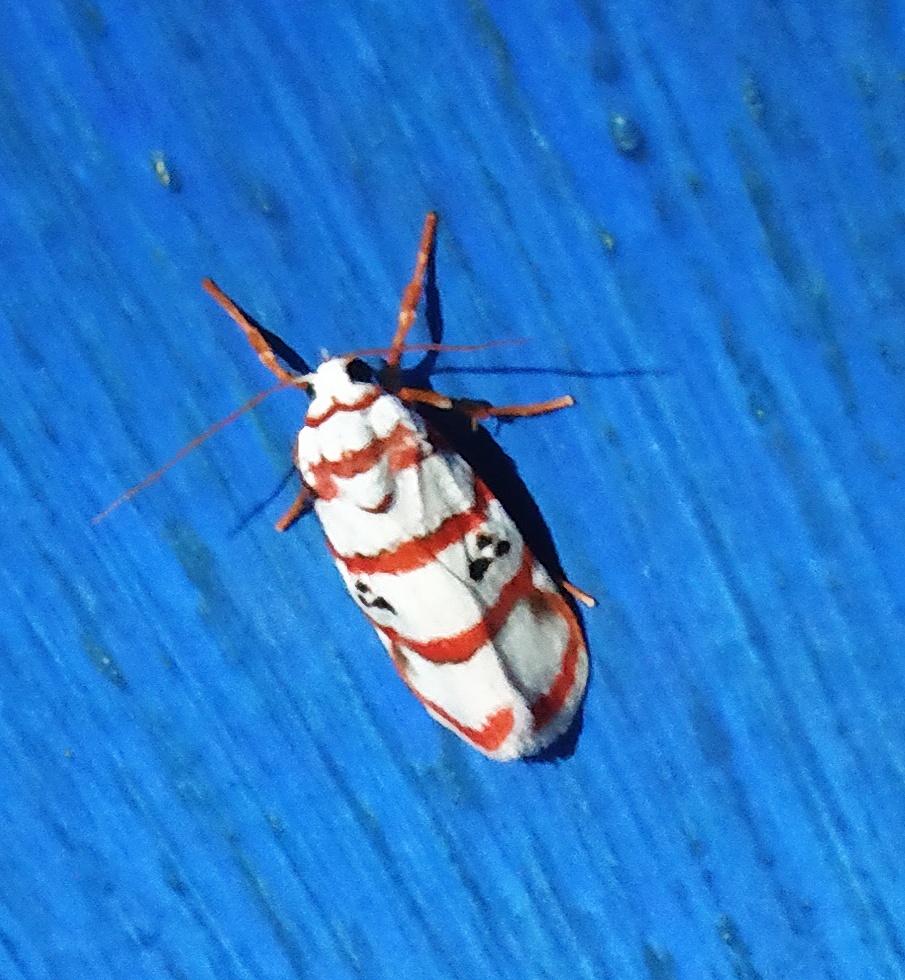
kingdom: Animalia
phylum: Arthropoda
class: Insecta
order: Lepidoptera
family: Erebidae
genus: Cyana
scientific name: Cyana peregrina
